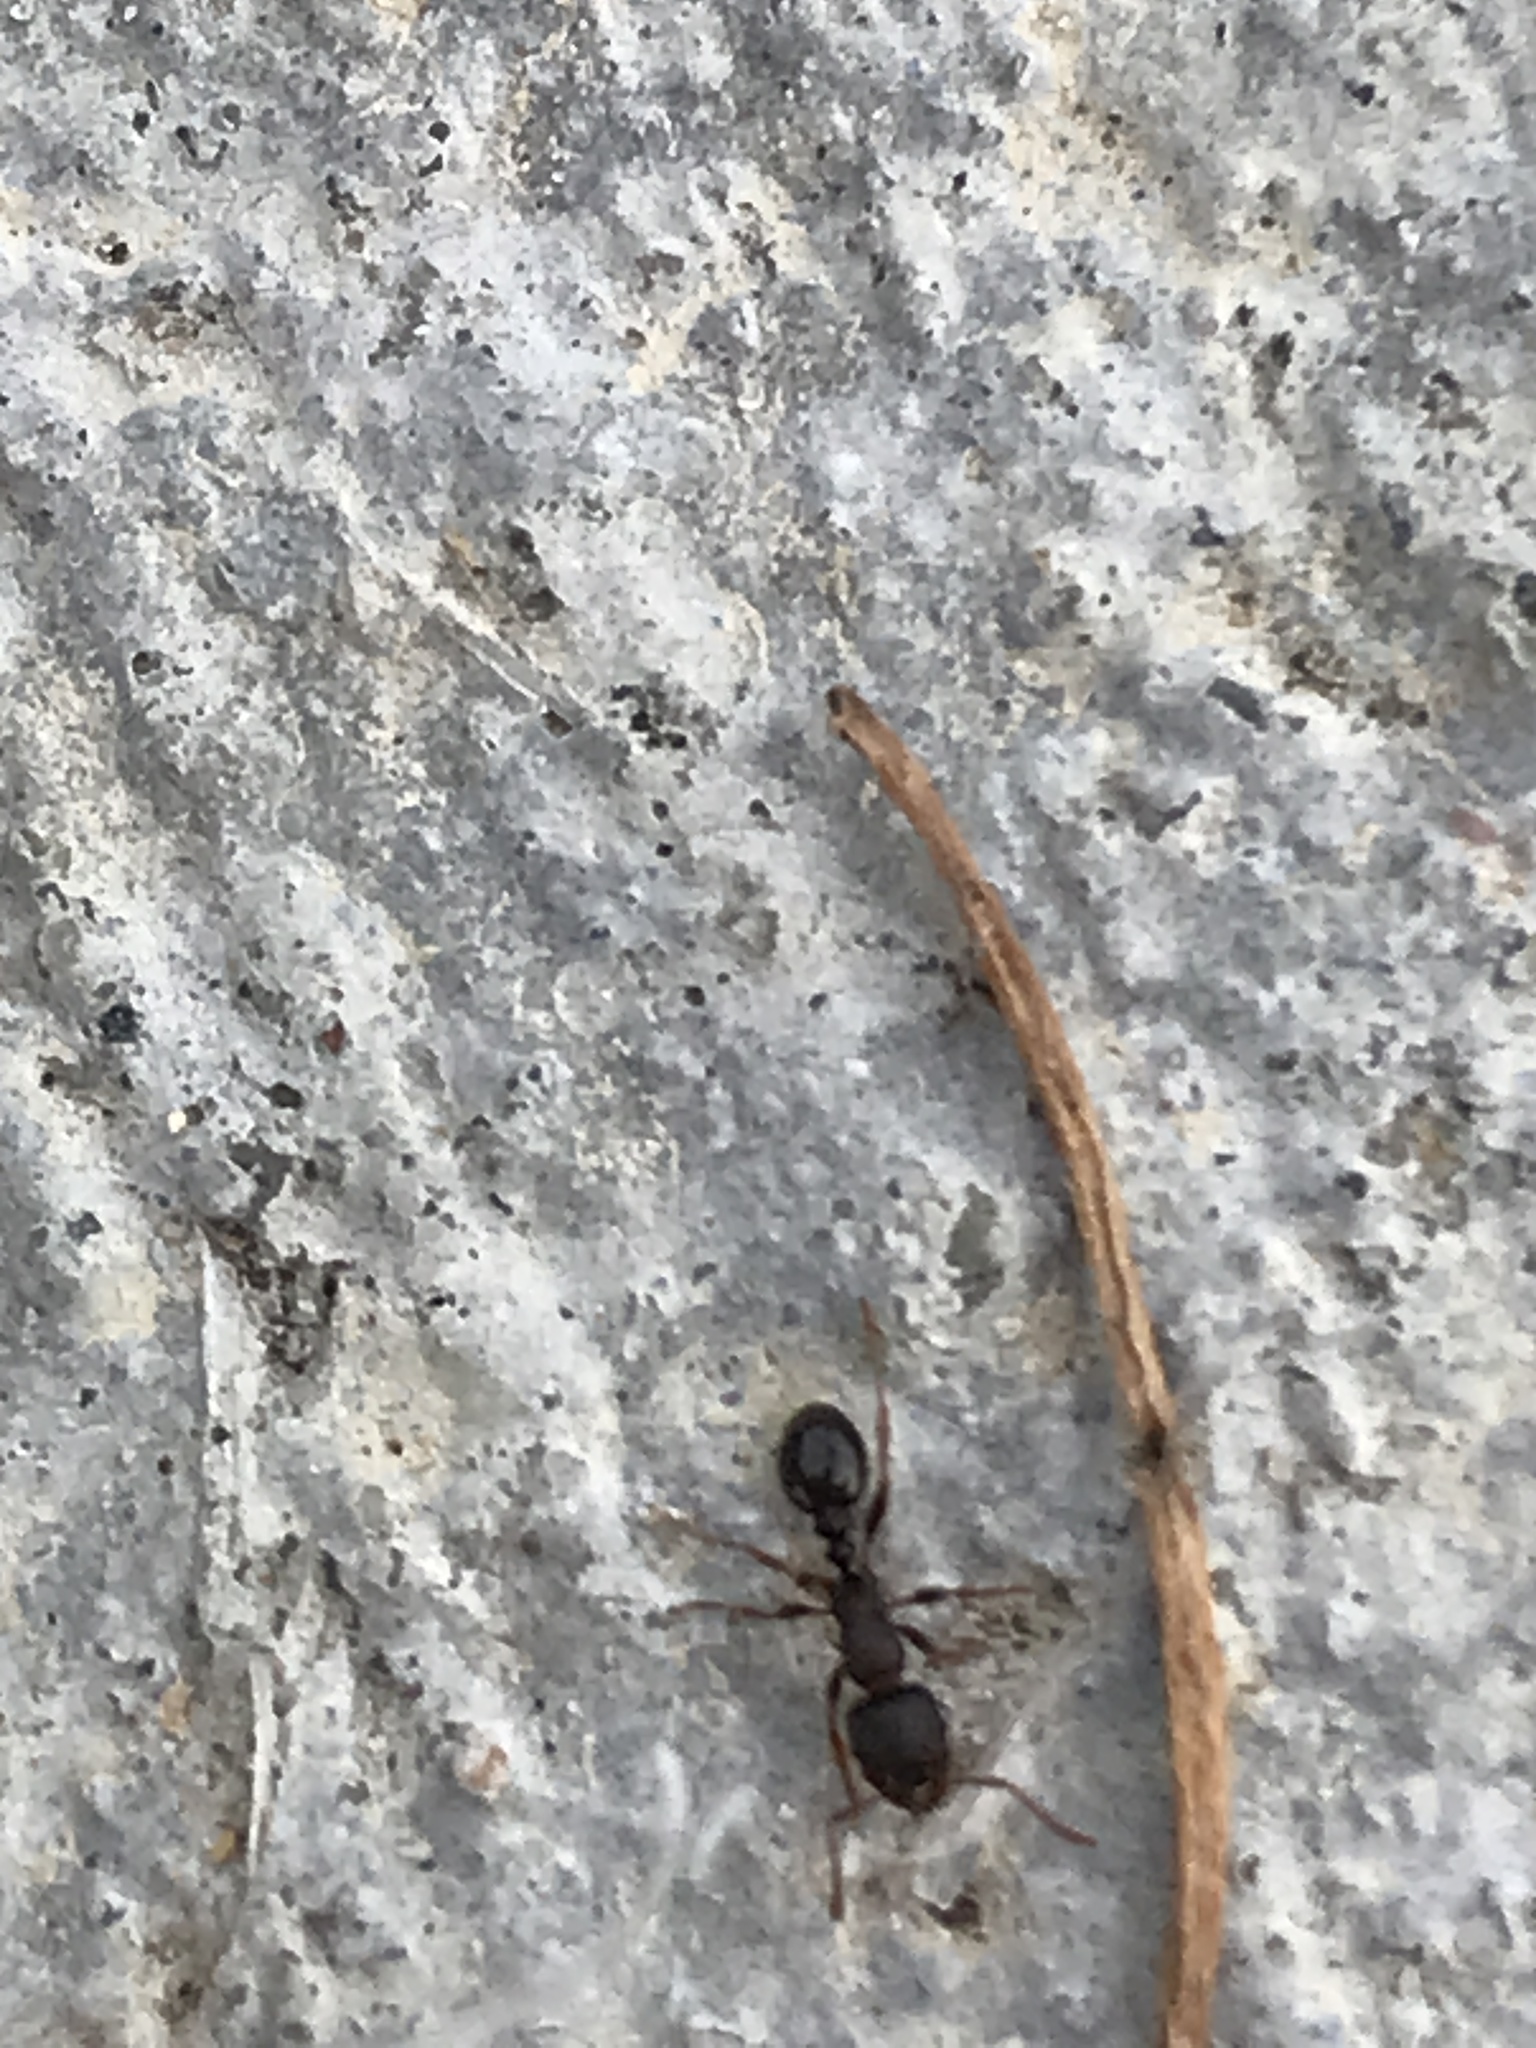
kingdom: Animalia
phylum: Arthropoda
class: Insecta
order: Hymenoptera
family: Formicidae
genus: Tetramorium
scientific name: Tetramorium immigrans
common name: Pavement ant
